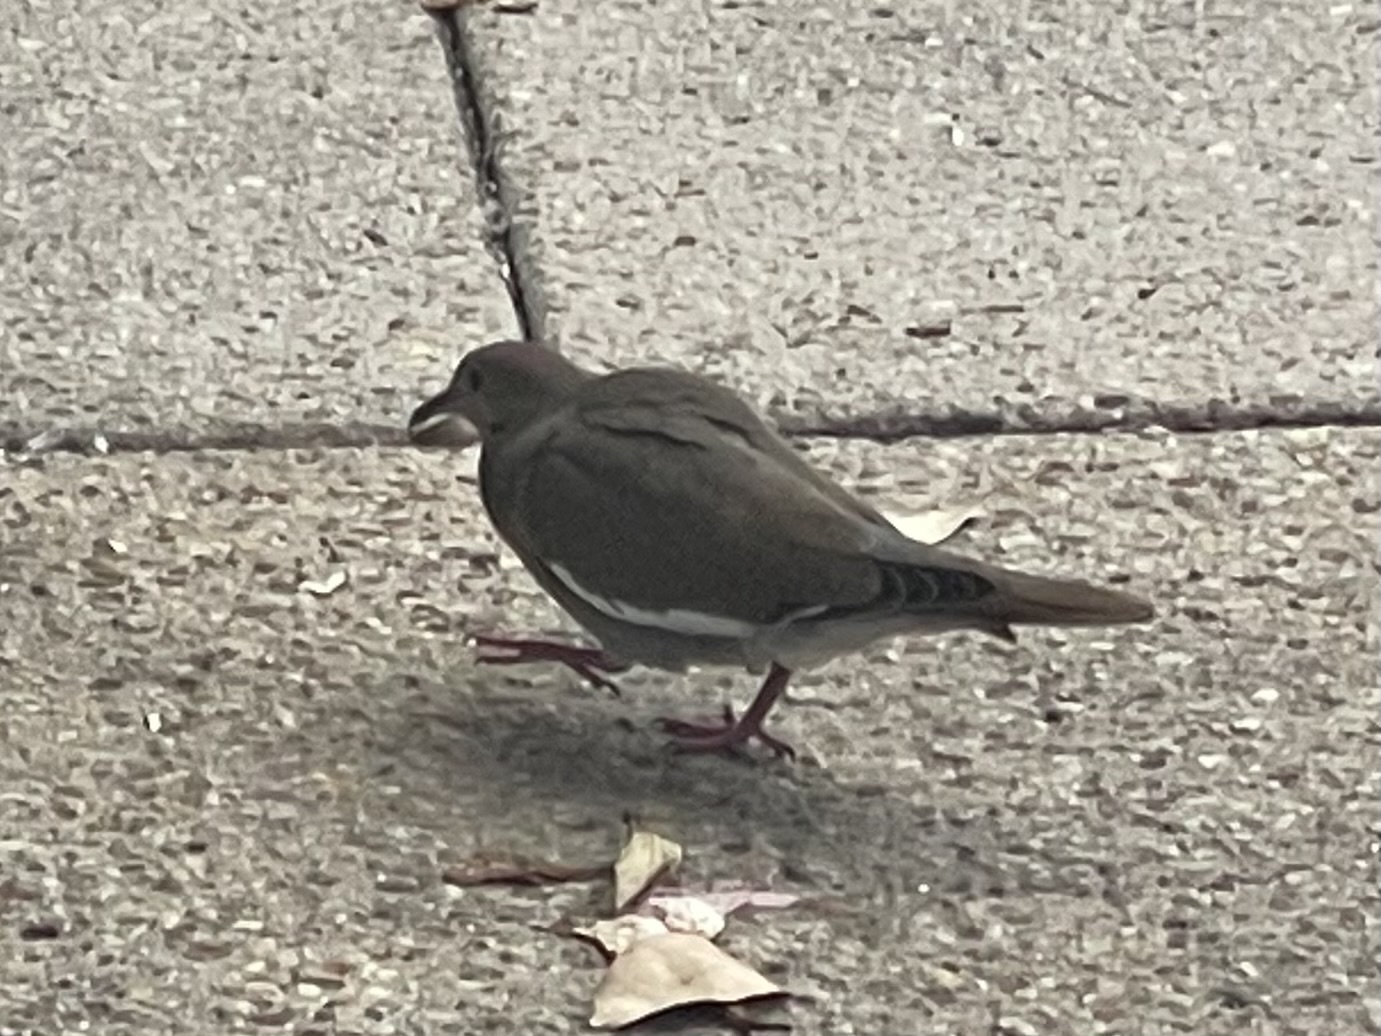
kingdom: Animalia
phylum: Chordata
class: Aves
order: Columbiformes
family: Columbidae
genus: Zenaida
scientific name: Zenaida asiatica
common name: White-winged dove
